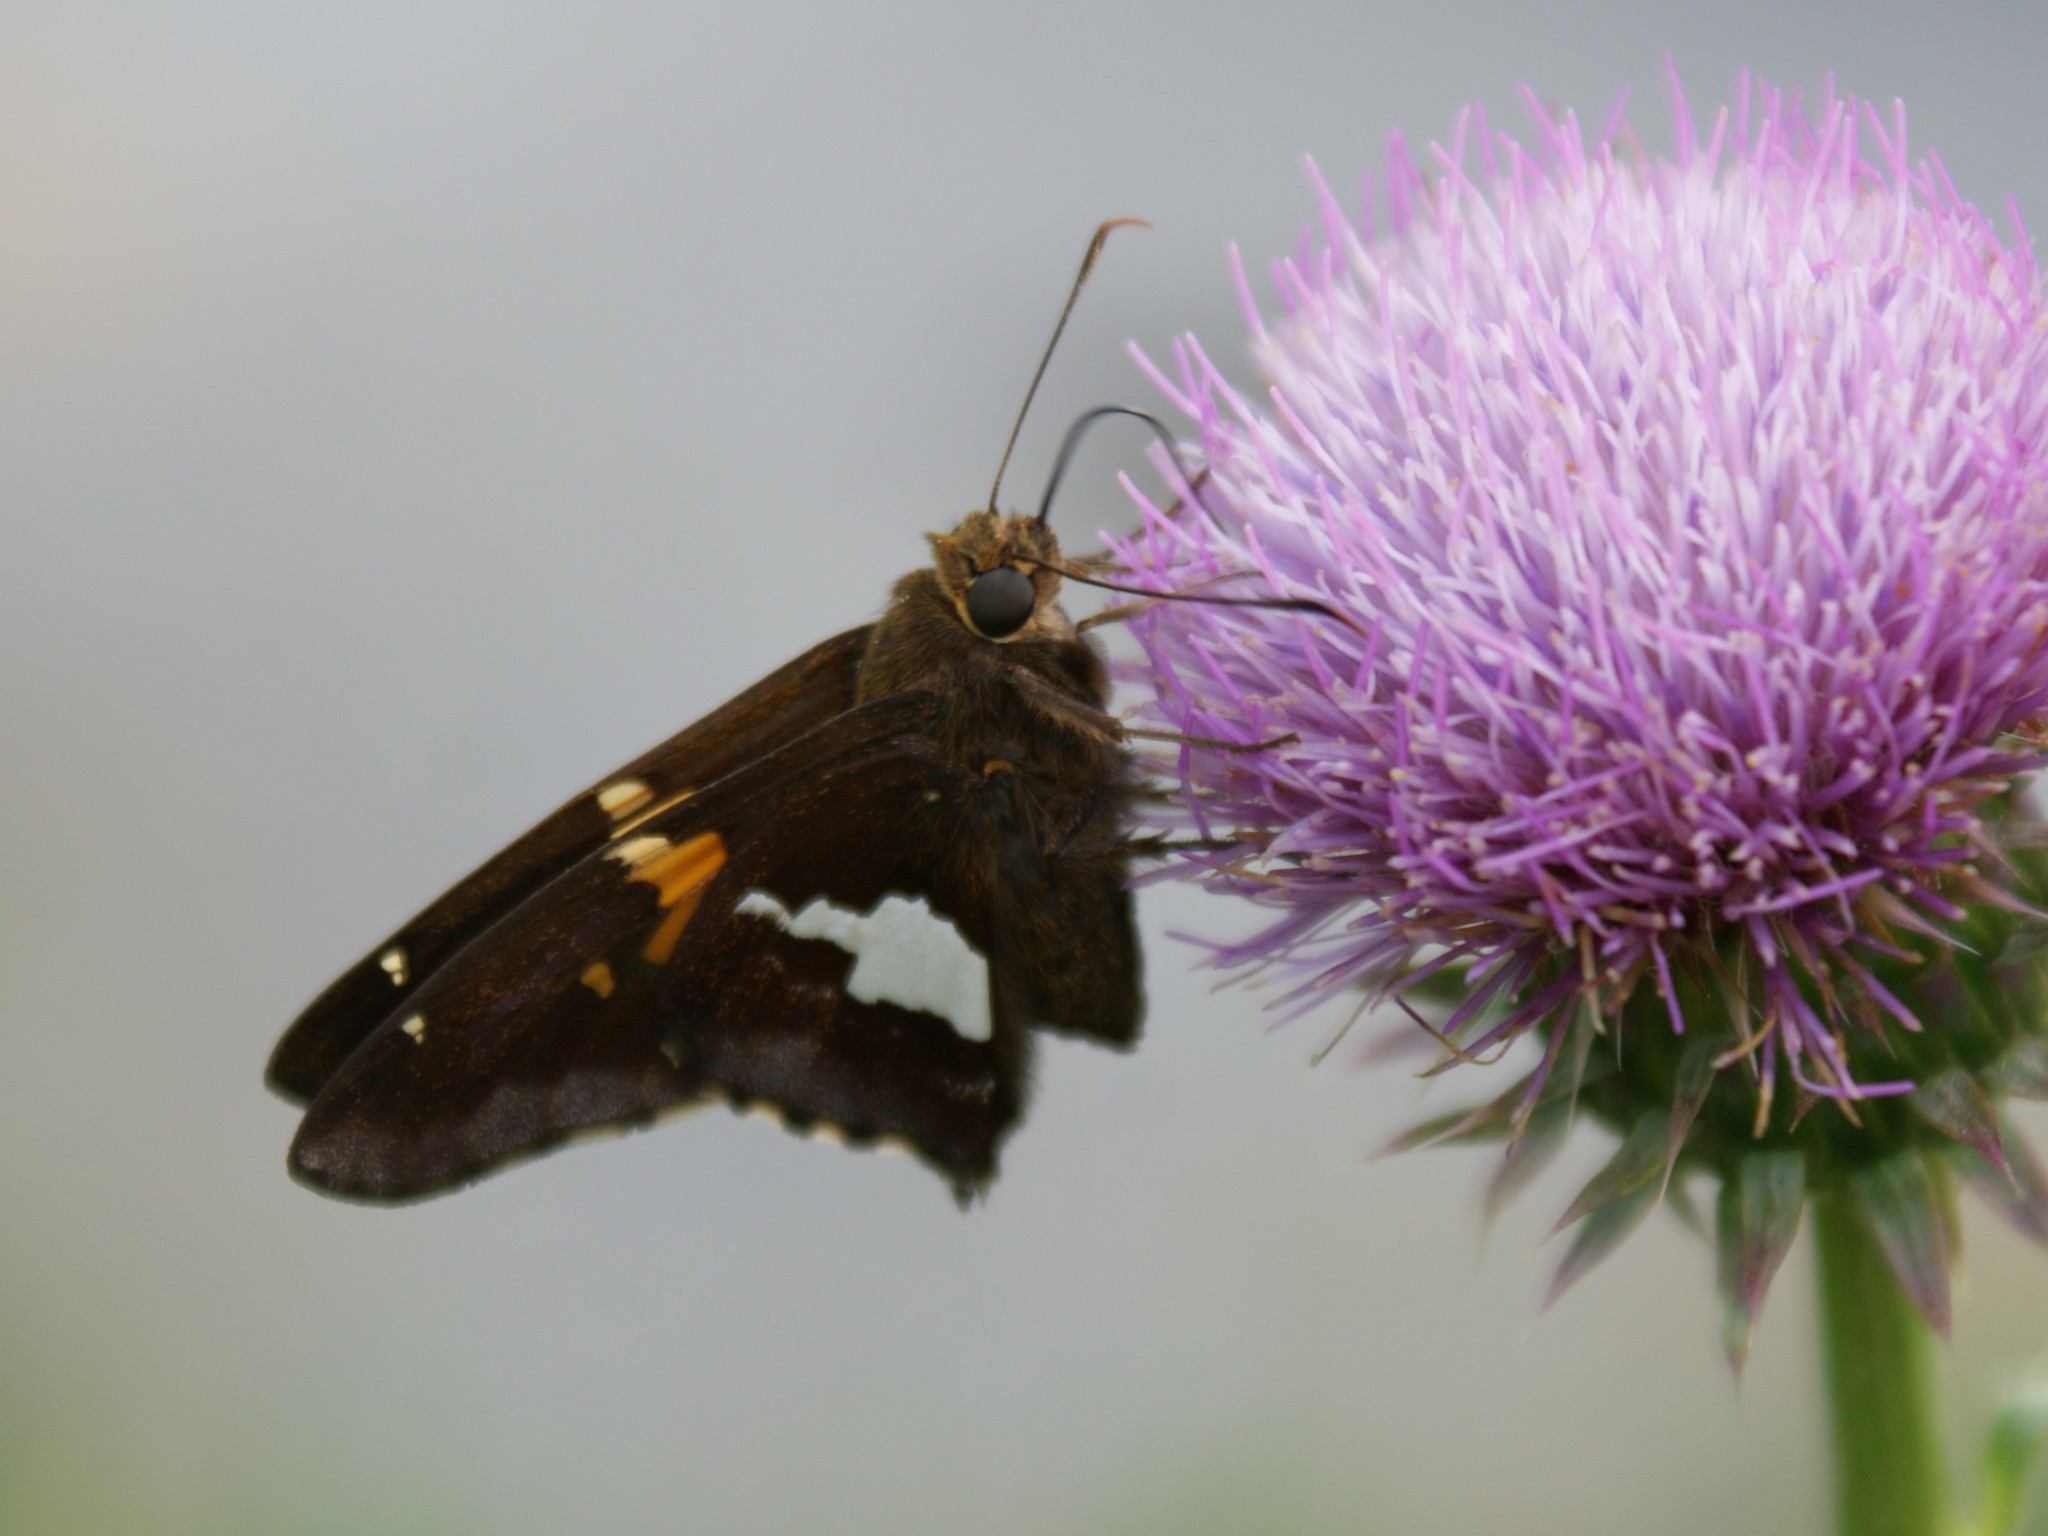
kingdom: Animalia
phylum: Arthropoda
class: Insecta
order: Lepidoptera
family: Hesperiidae
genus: Epargyreus
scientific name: Epargyreus clarus
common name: Silver-spotted skipper
